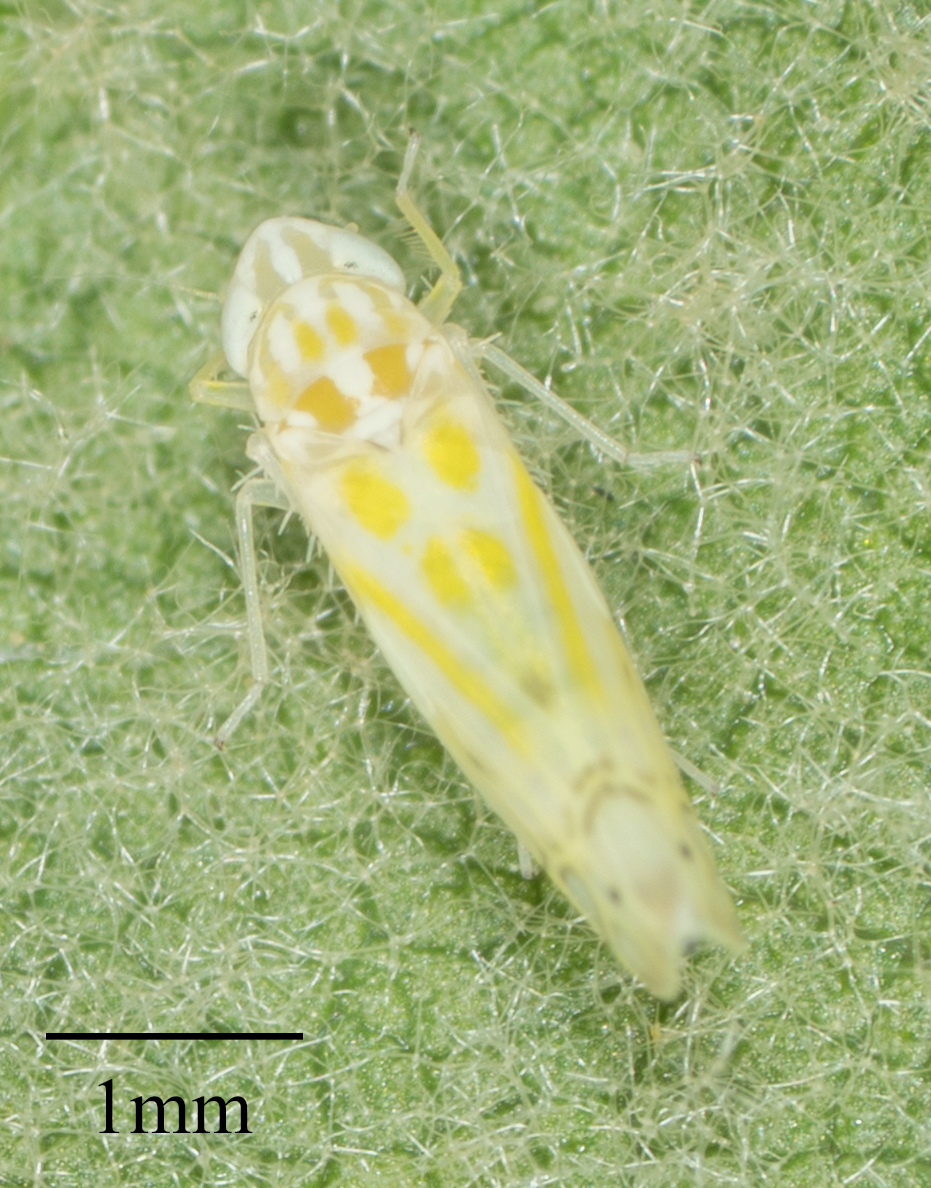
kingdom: Animalia
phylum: Arthropoda
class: Insecta
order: Hemiptera
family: Cicadellidae
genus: Alconeura
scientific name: Alconeura quadrimaculata
